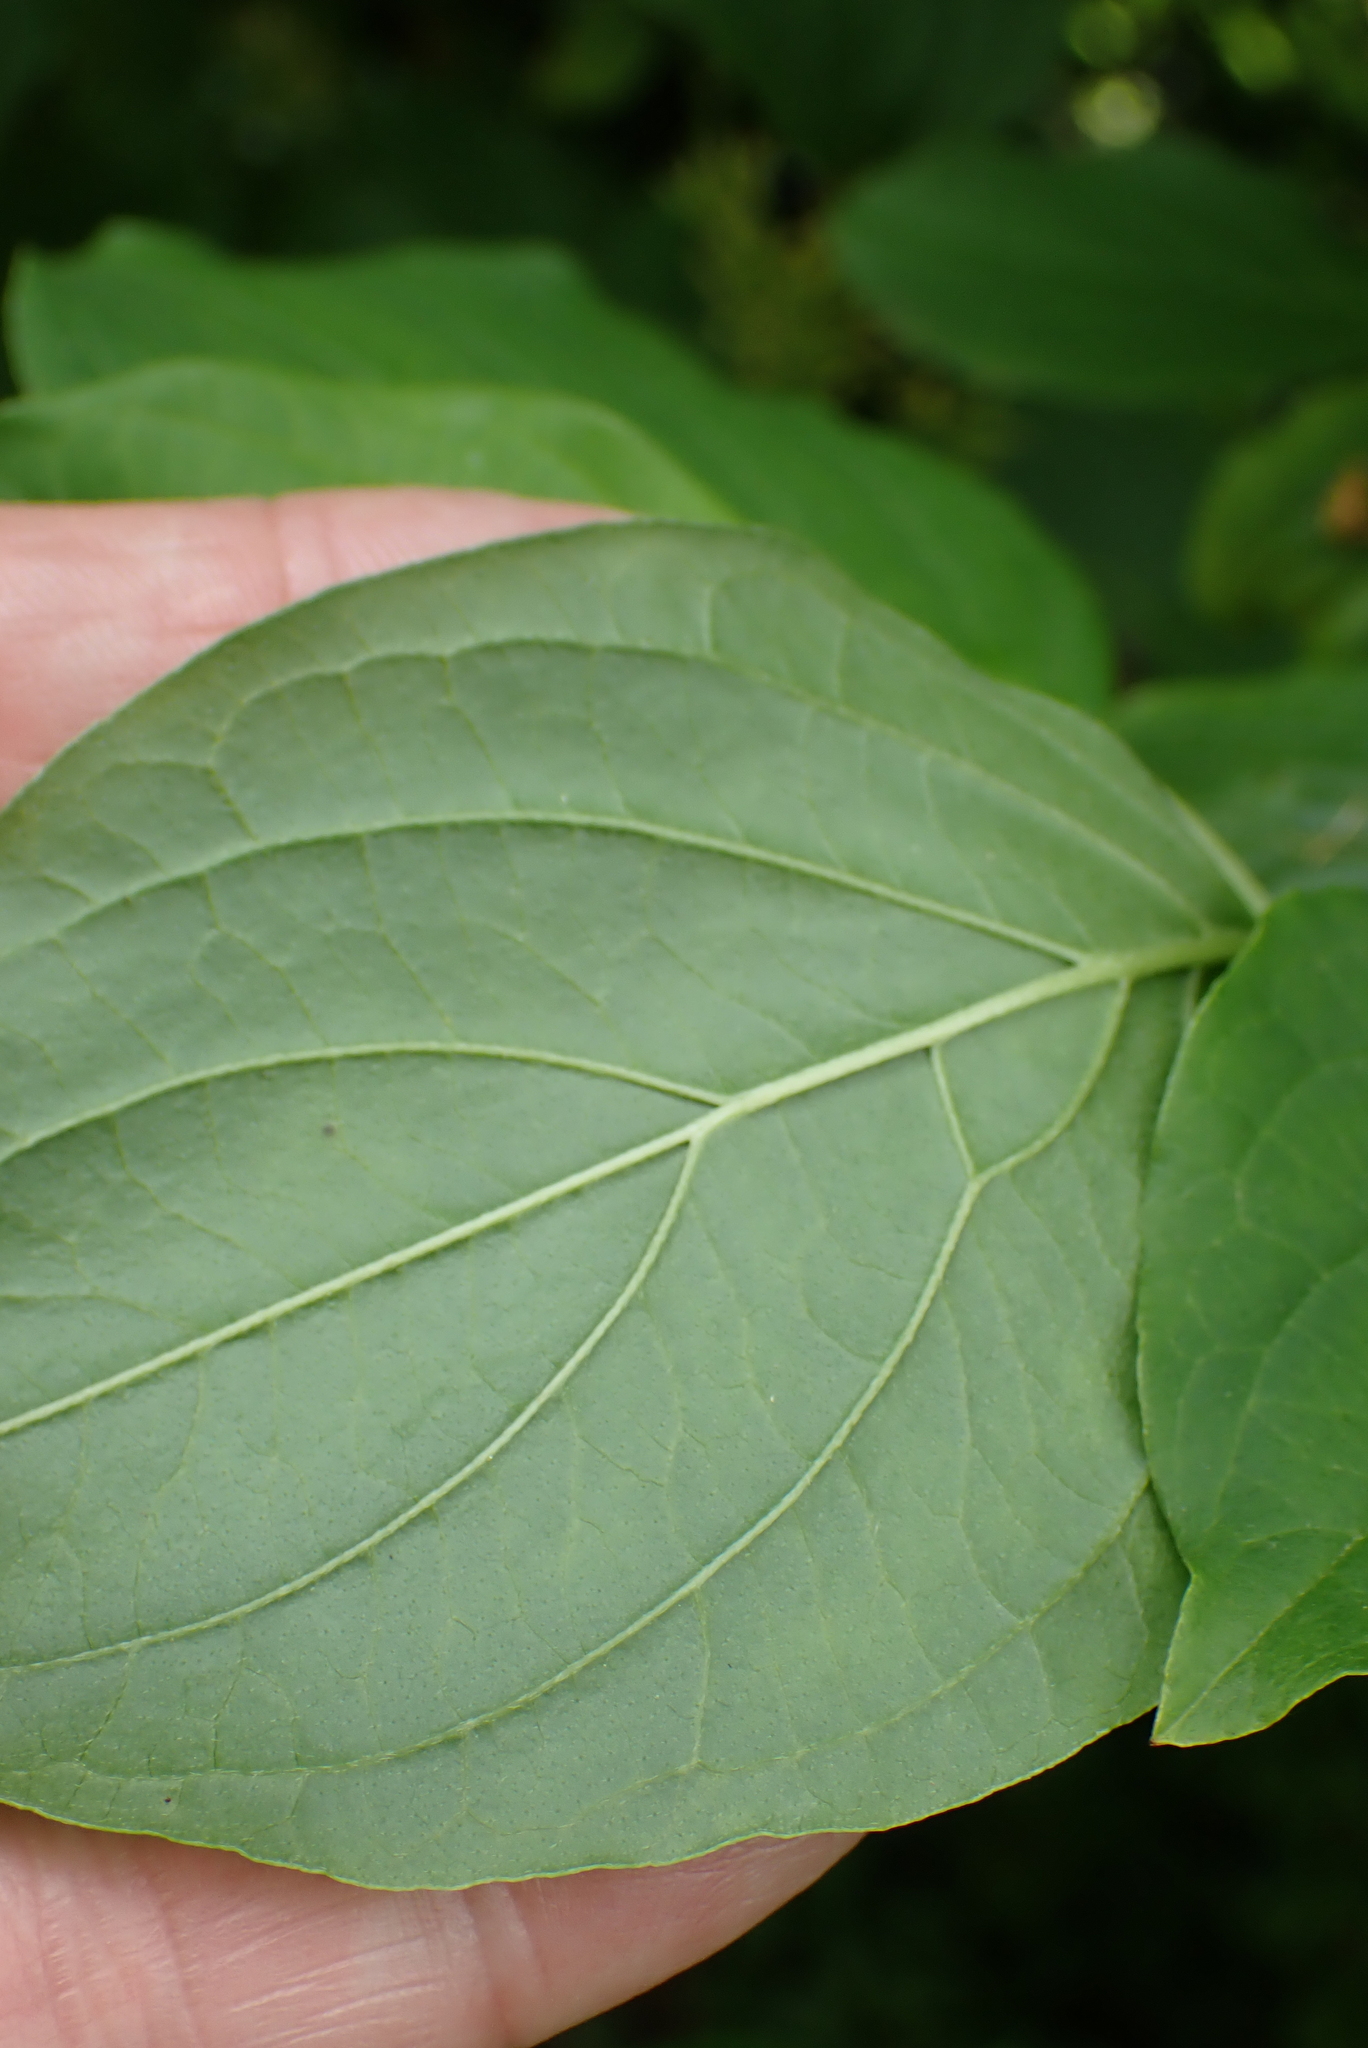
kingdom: Plantae
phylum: Tracheophyta
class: Magnoliopsida
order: Cornales
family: Cornaceae
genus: Cornus
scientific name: Cornus sanguinea
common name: Dogwood
